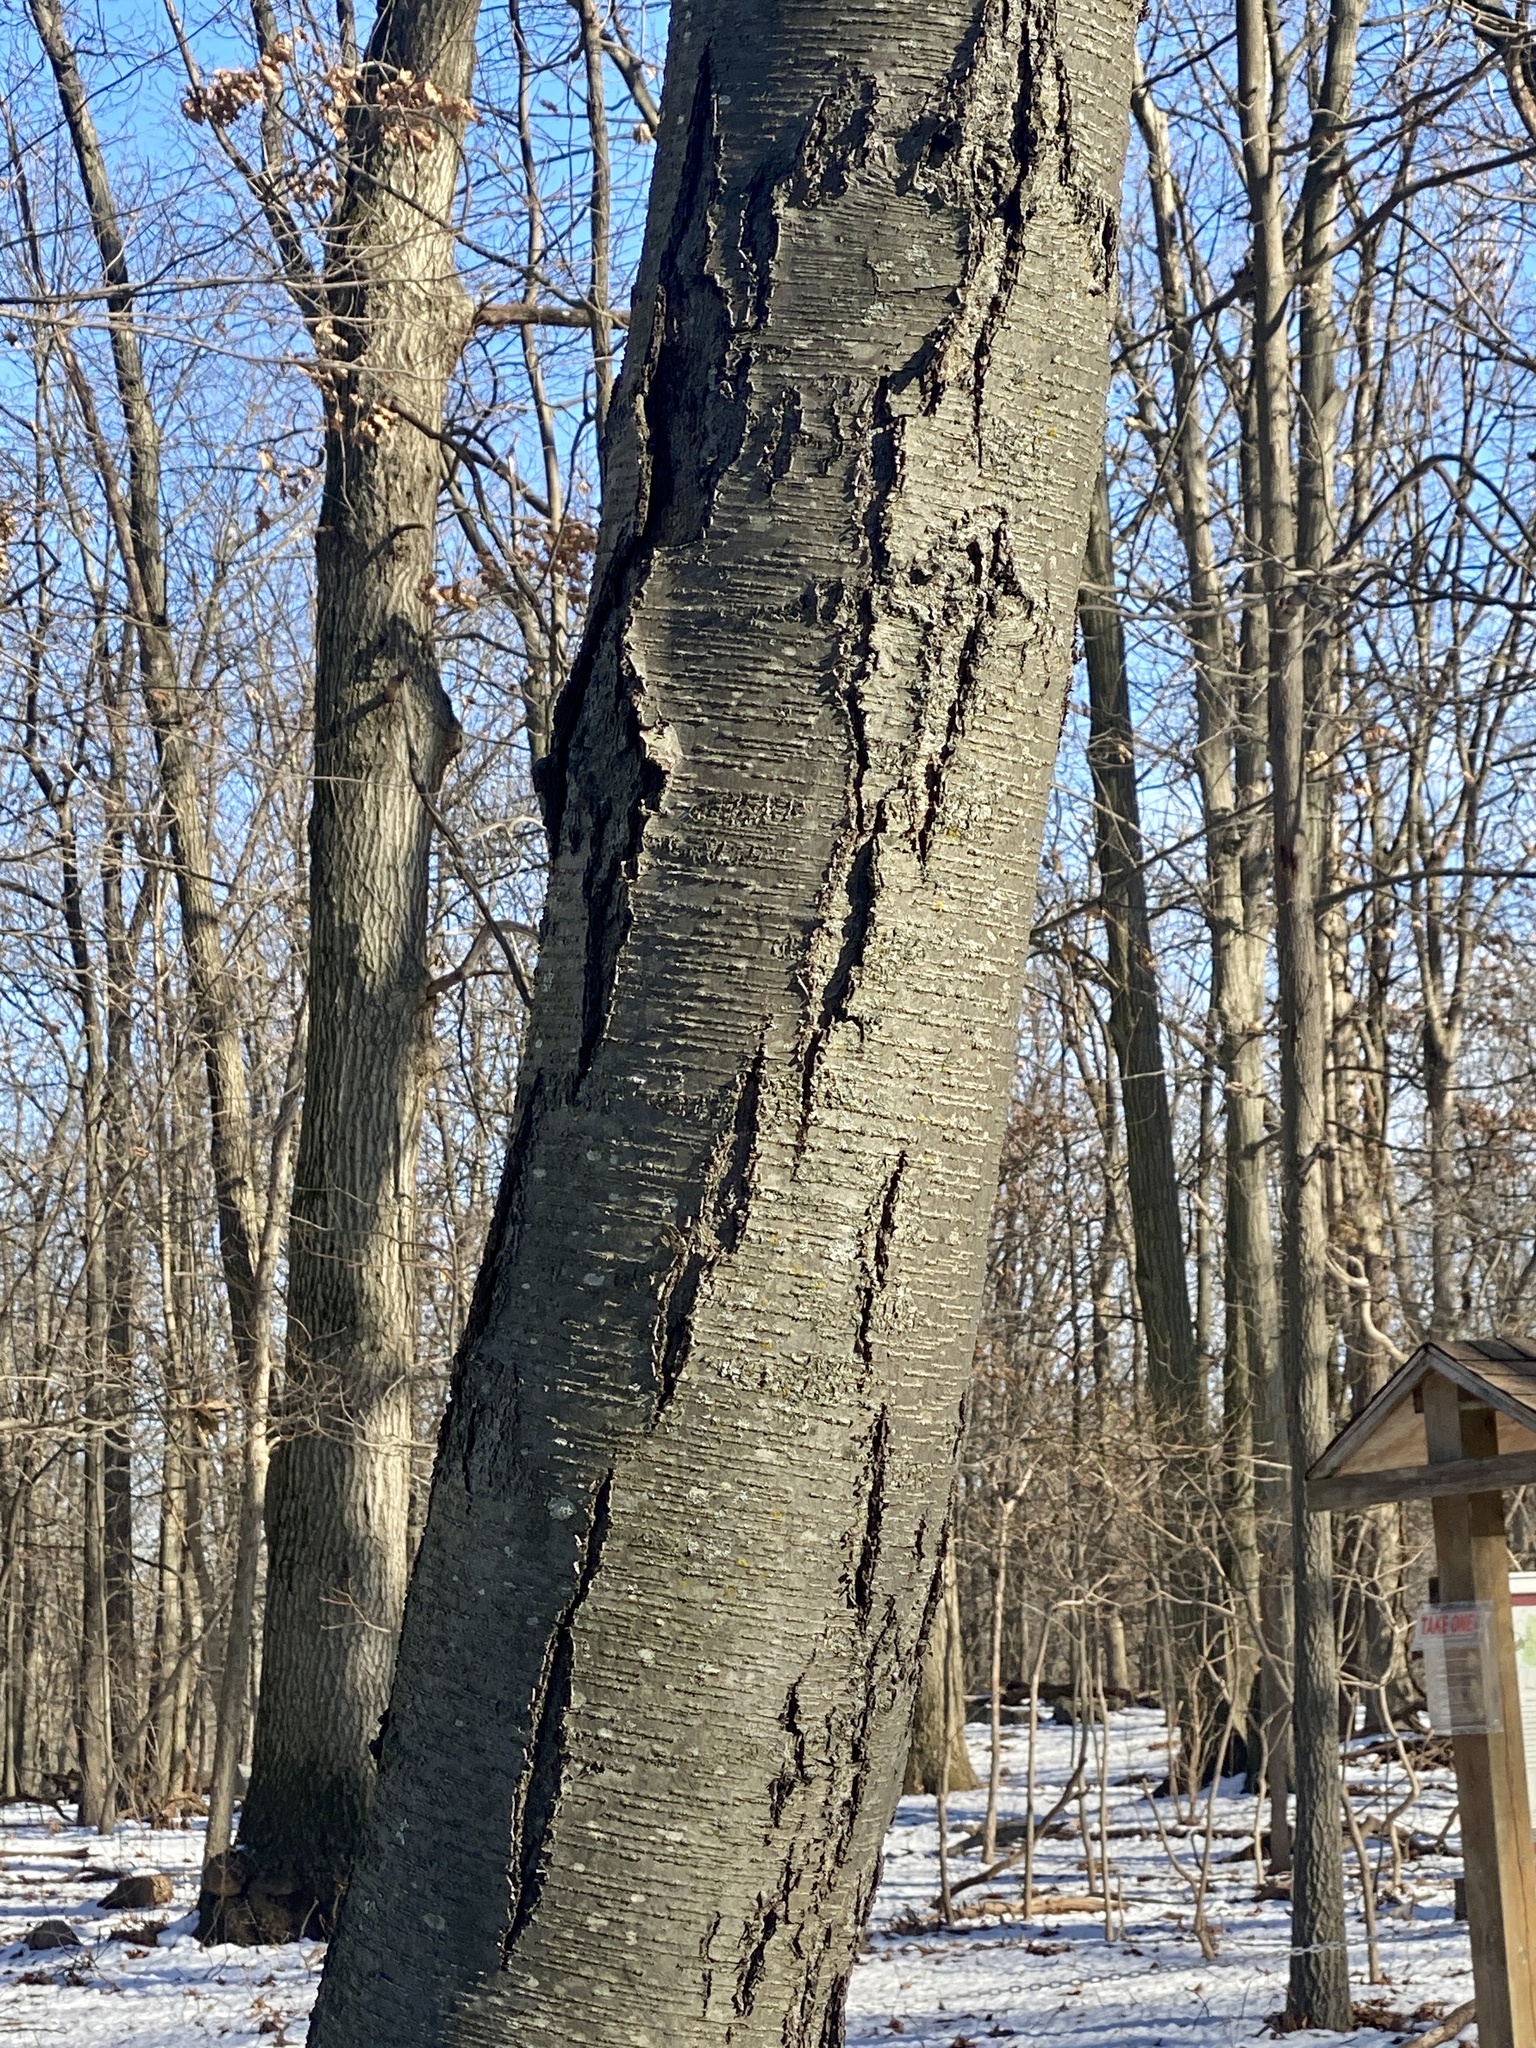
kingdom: Plantae
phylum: Tracheophyta
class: Magnoliopsida
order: Fagales
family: Betulaceae
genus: Betula
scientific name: Betula lenta
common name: Black birch
